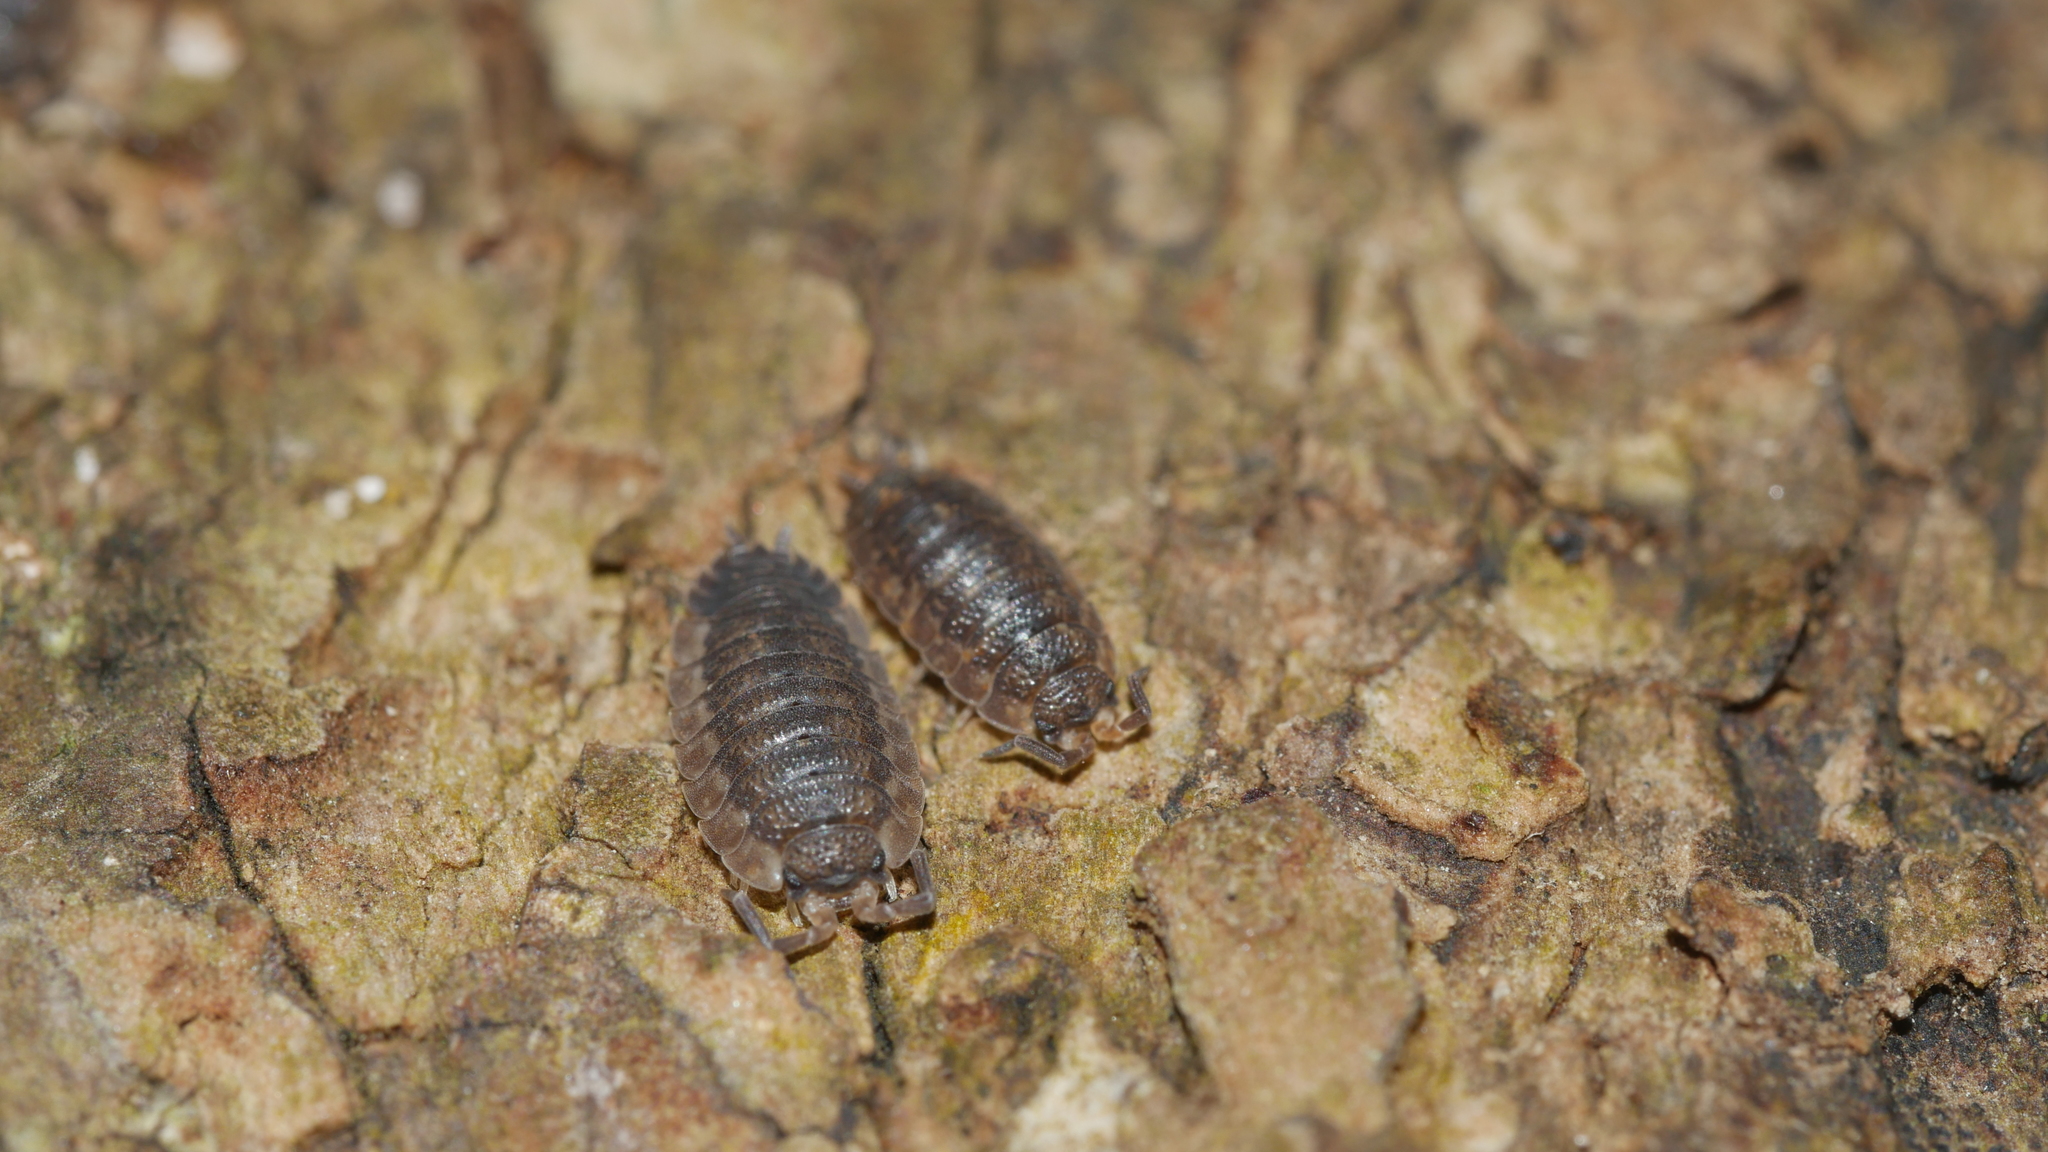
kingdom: Animalia
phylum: Arthropoda
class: Malacostraca
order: Isopoda
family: Porcellionidae
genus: Porcellio
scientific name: Porcellio scaber
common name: Common rough woodlouse
